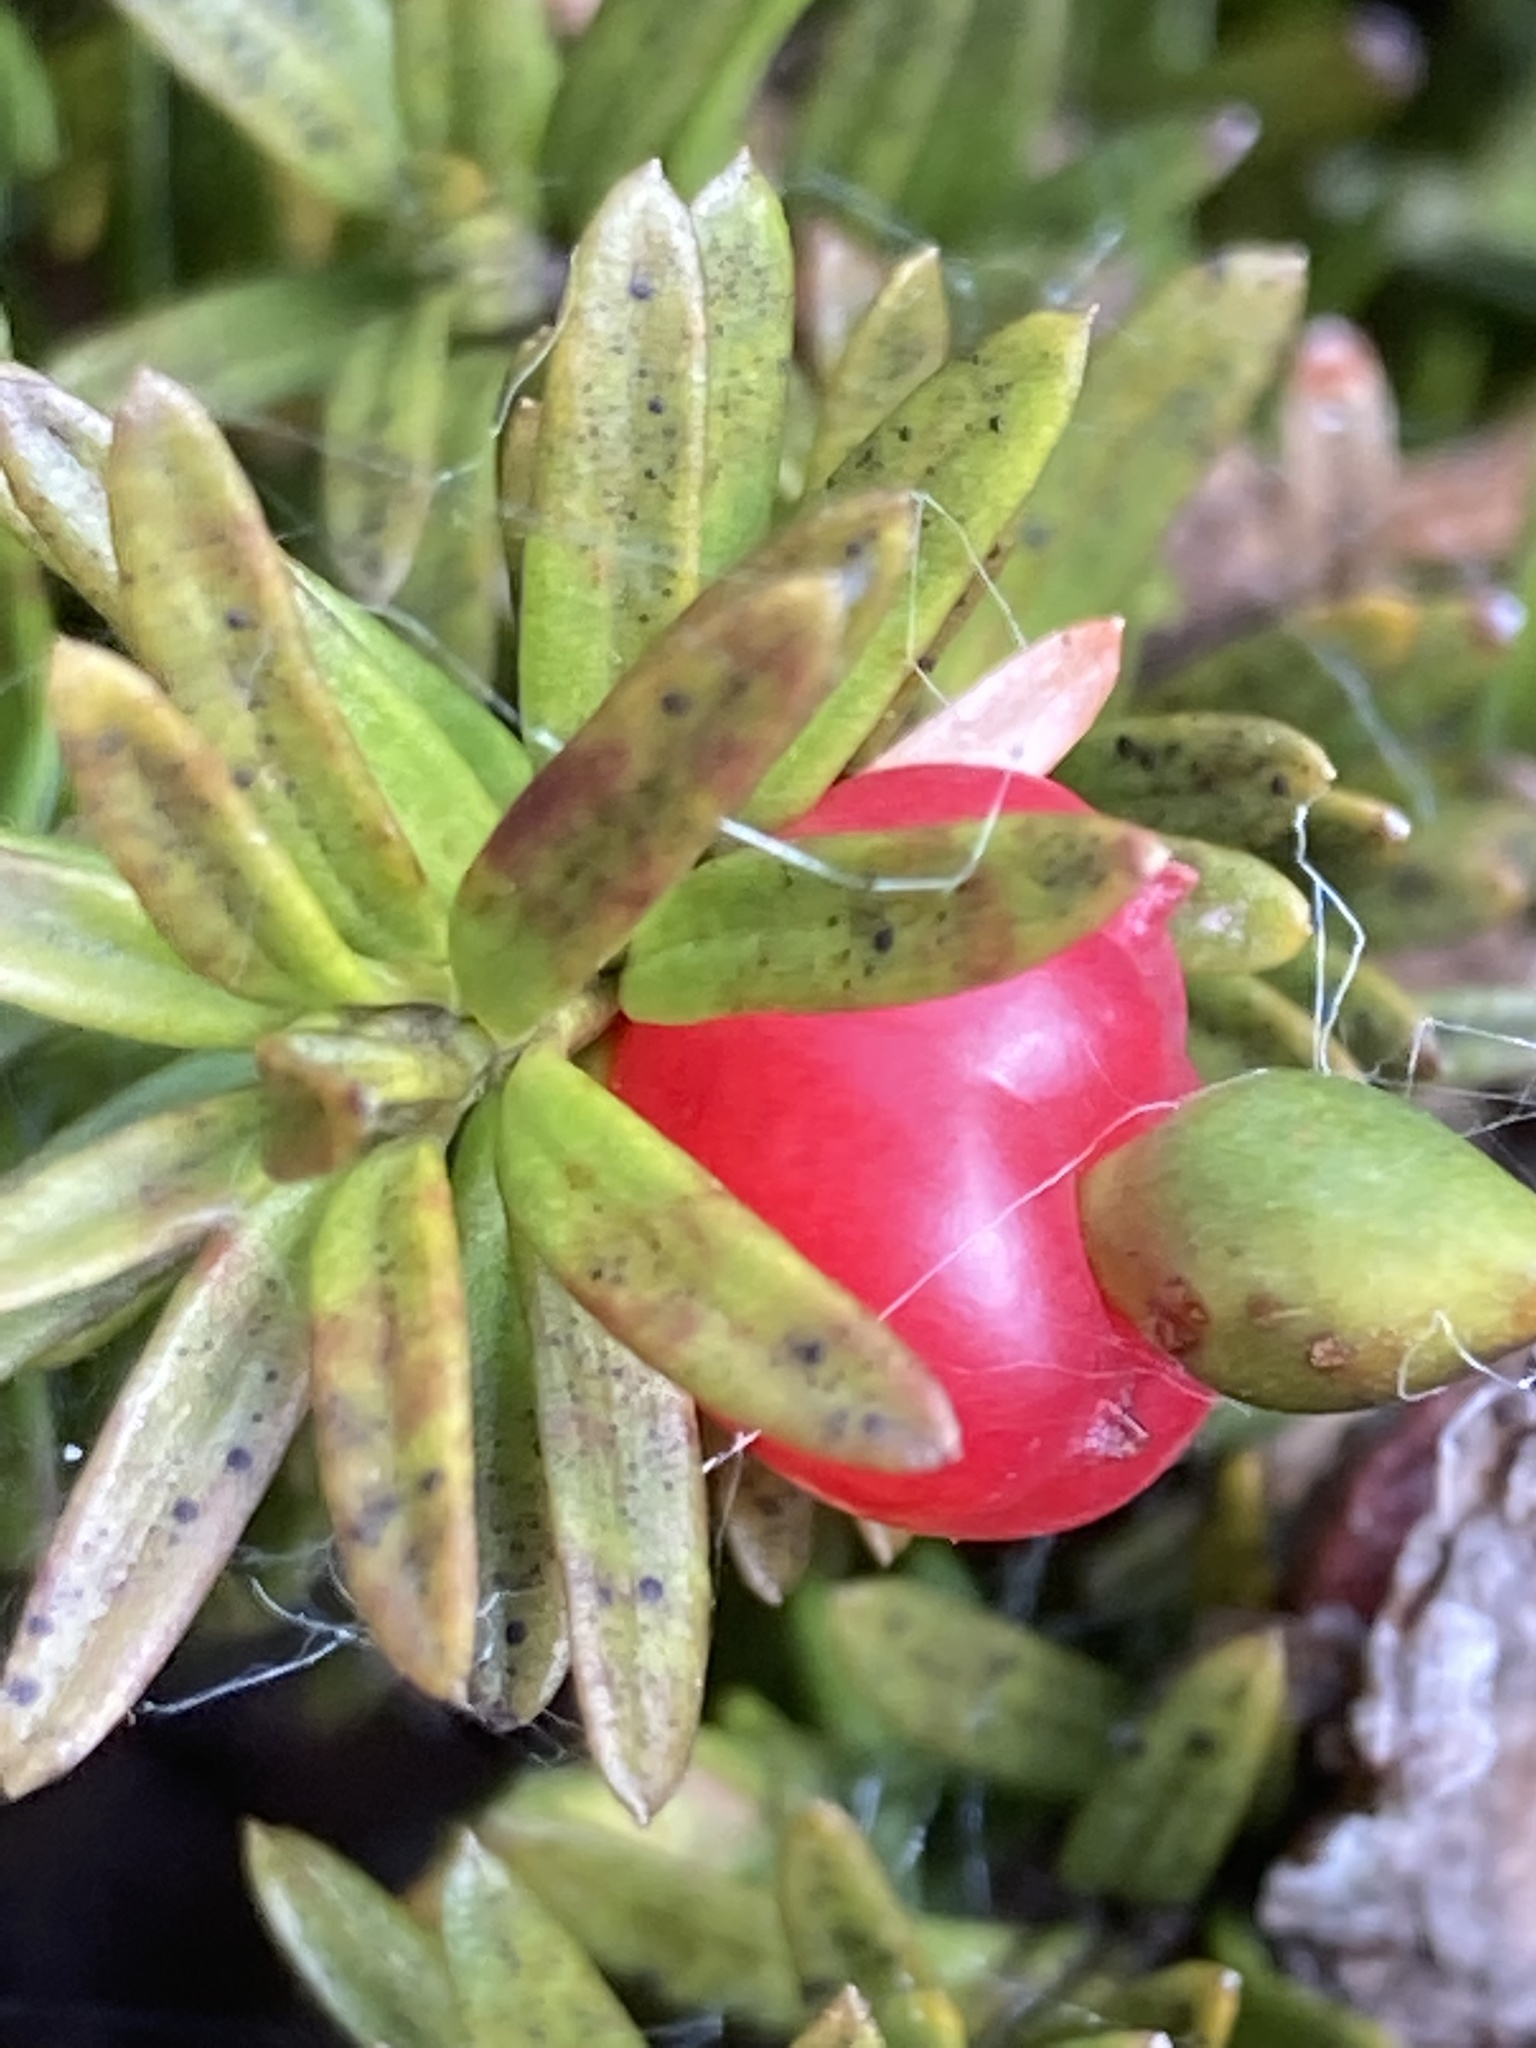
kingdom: Plantae
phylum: Tracheophyta
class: Pinopsida
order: Pinales
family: Podocarpaceae
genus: Podocarpus
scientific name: Podocarpus nivalis
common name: Alpine totara
